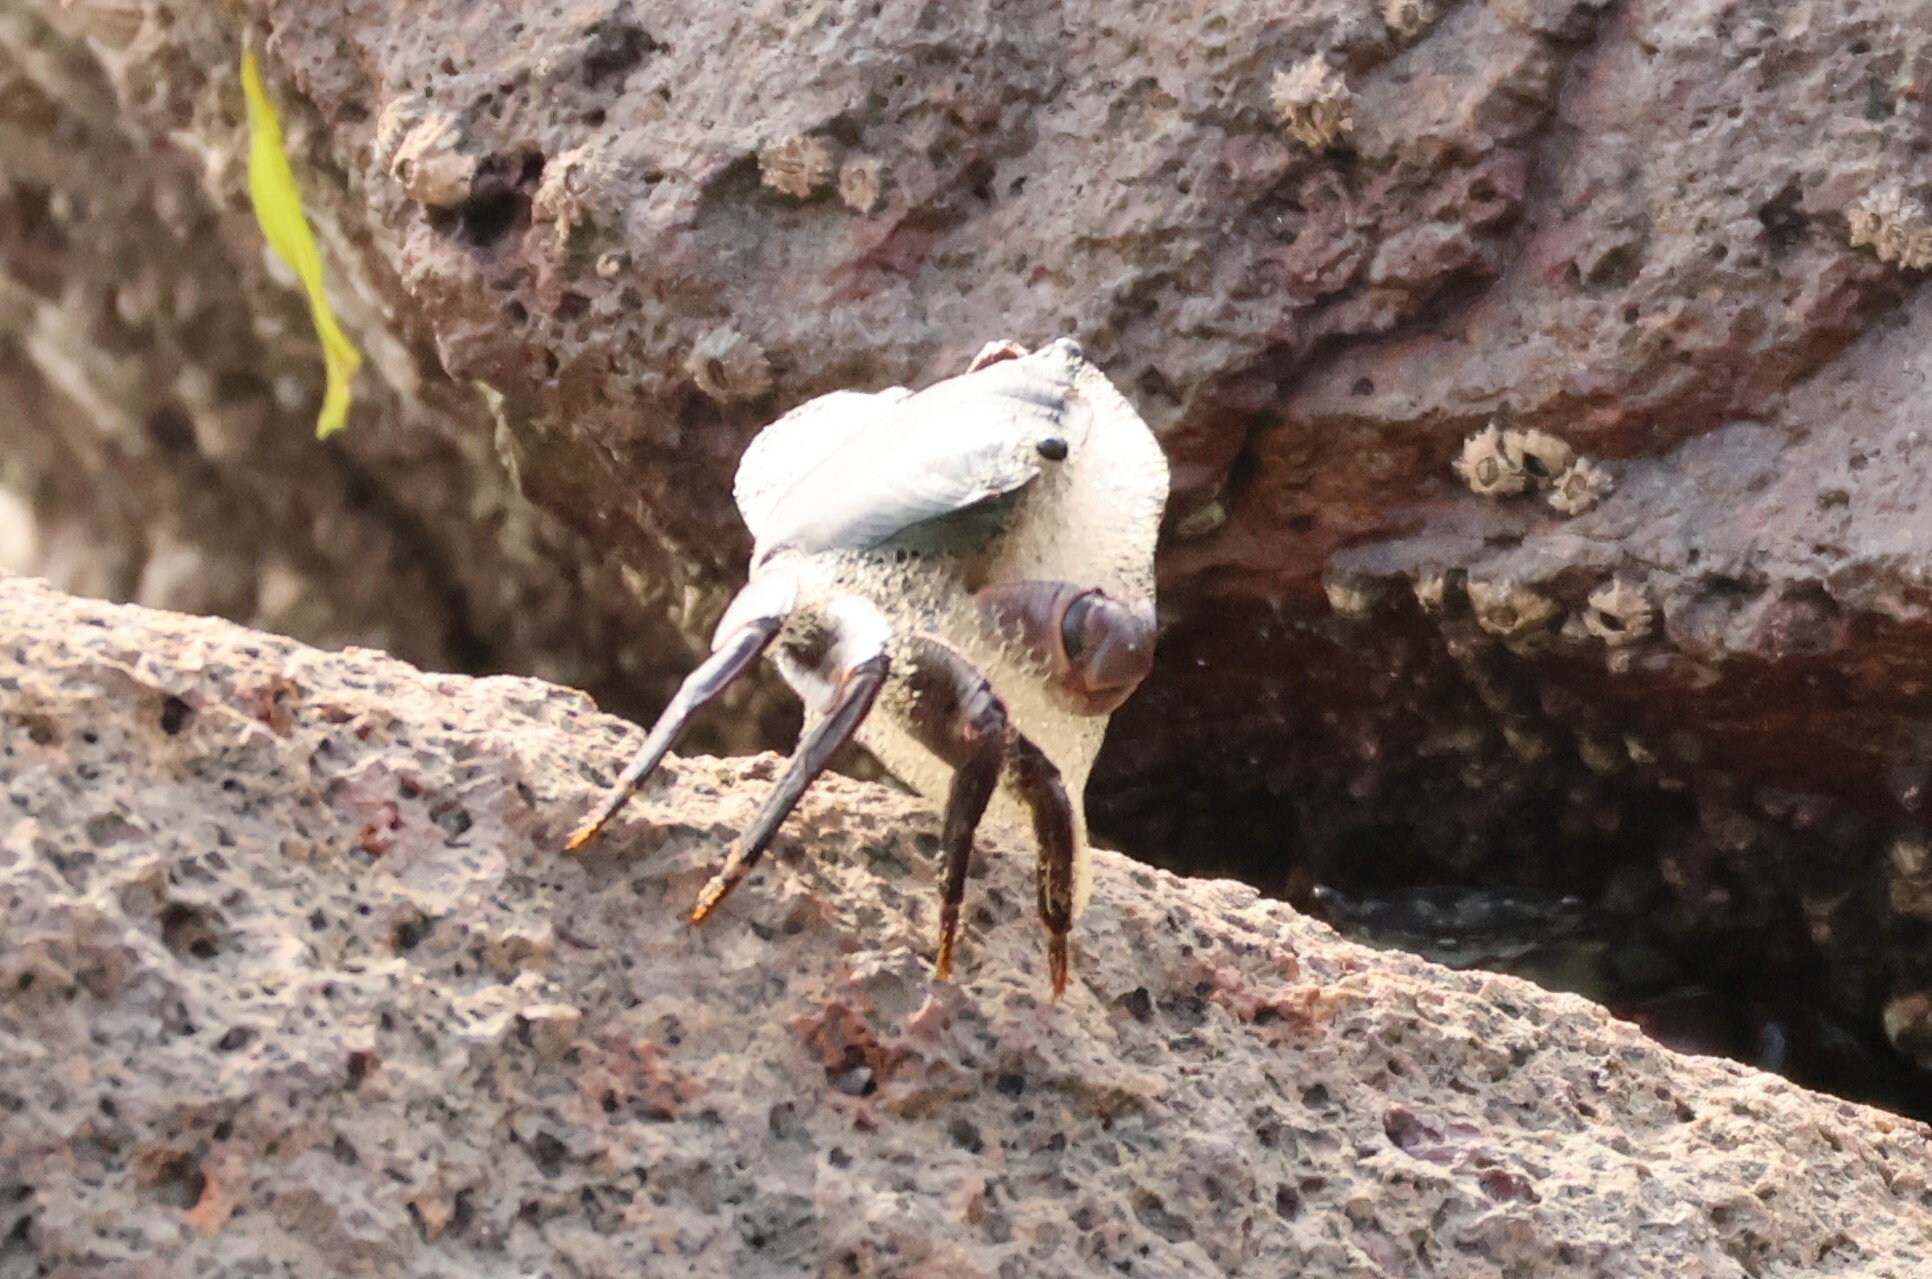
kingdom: Animalia
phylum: Arthropoda
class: Malacostraca
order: Decapoda
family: Grapsidae
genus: Pachygrapsus
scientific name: Pachygrapsus crassipes
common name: Striped shore crab
